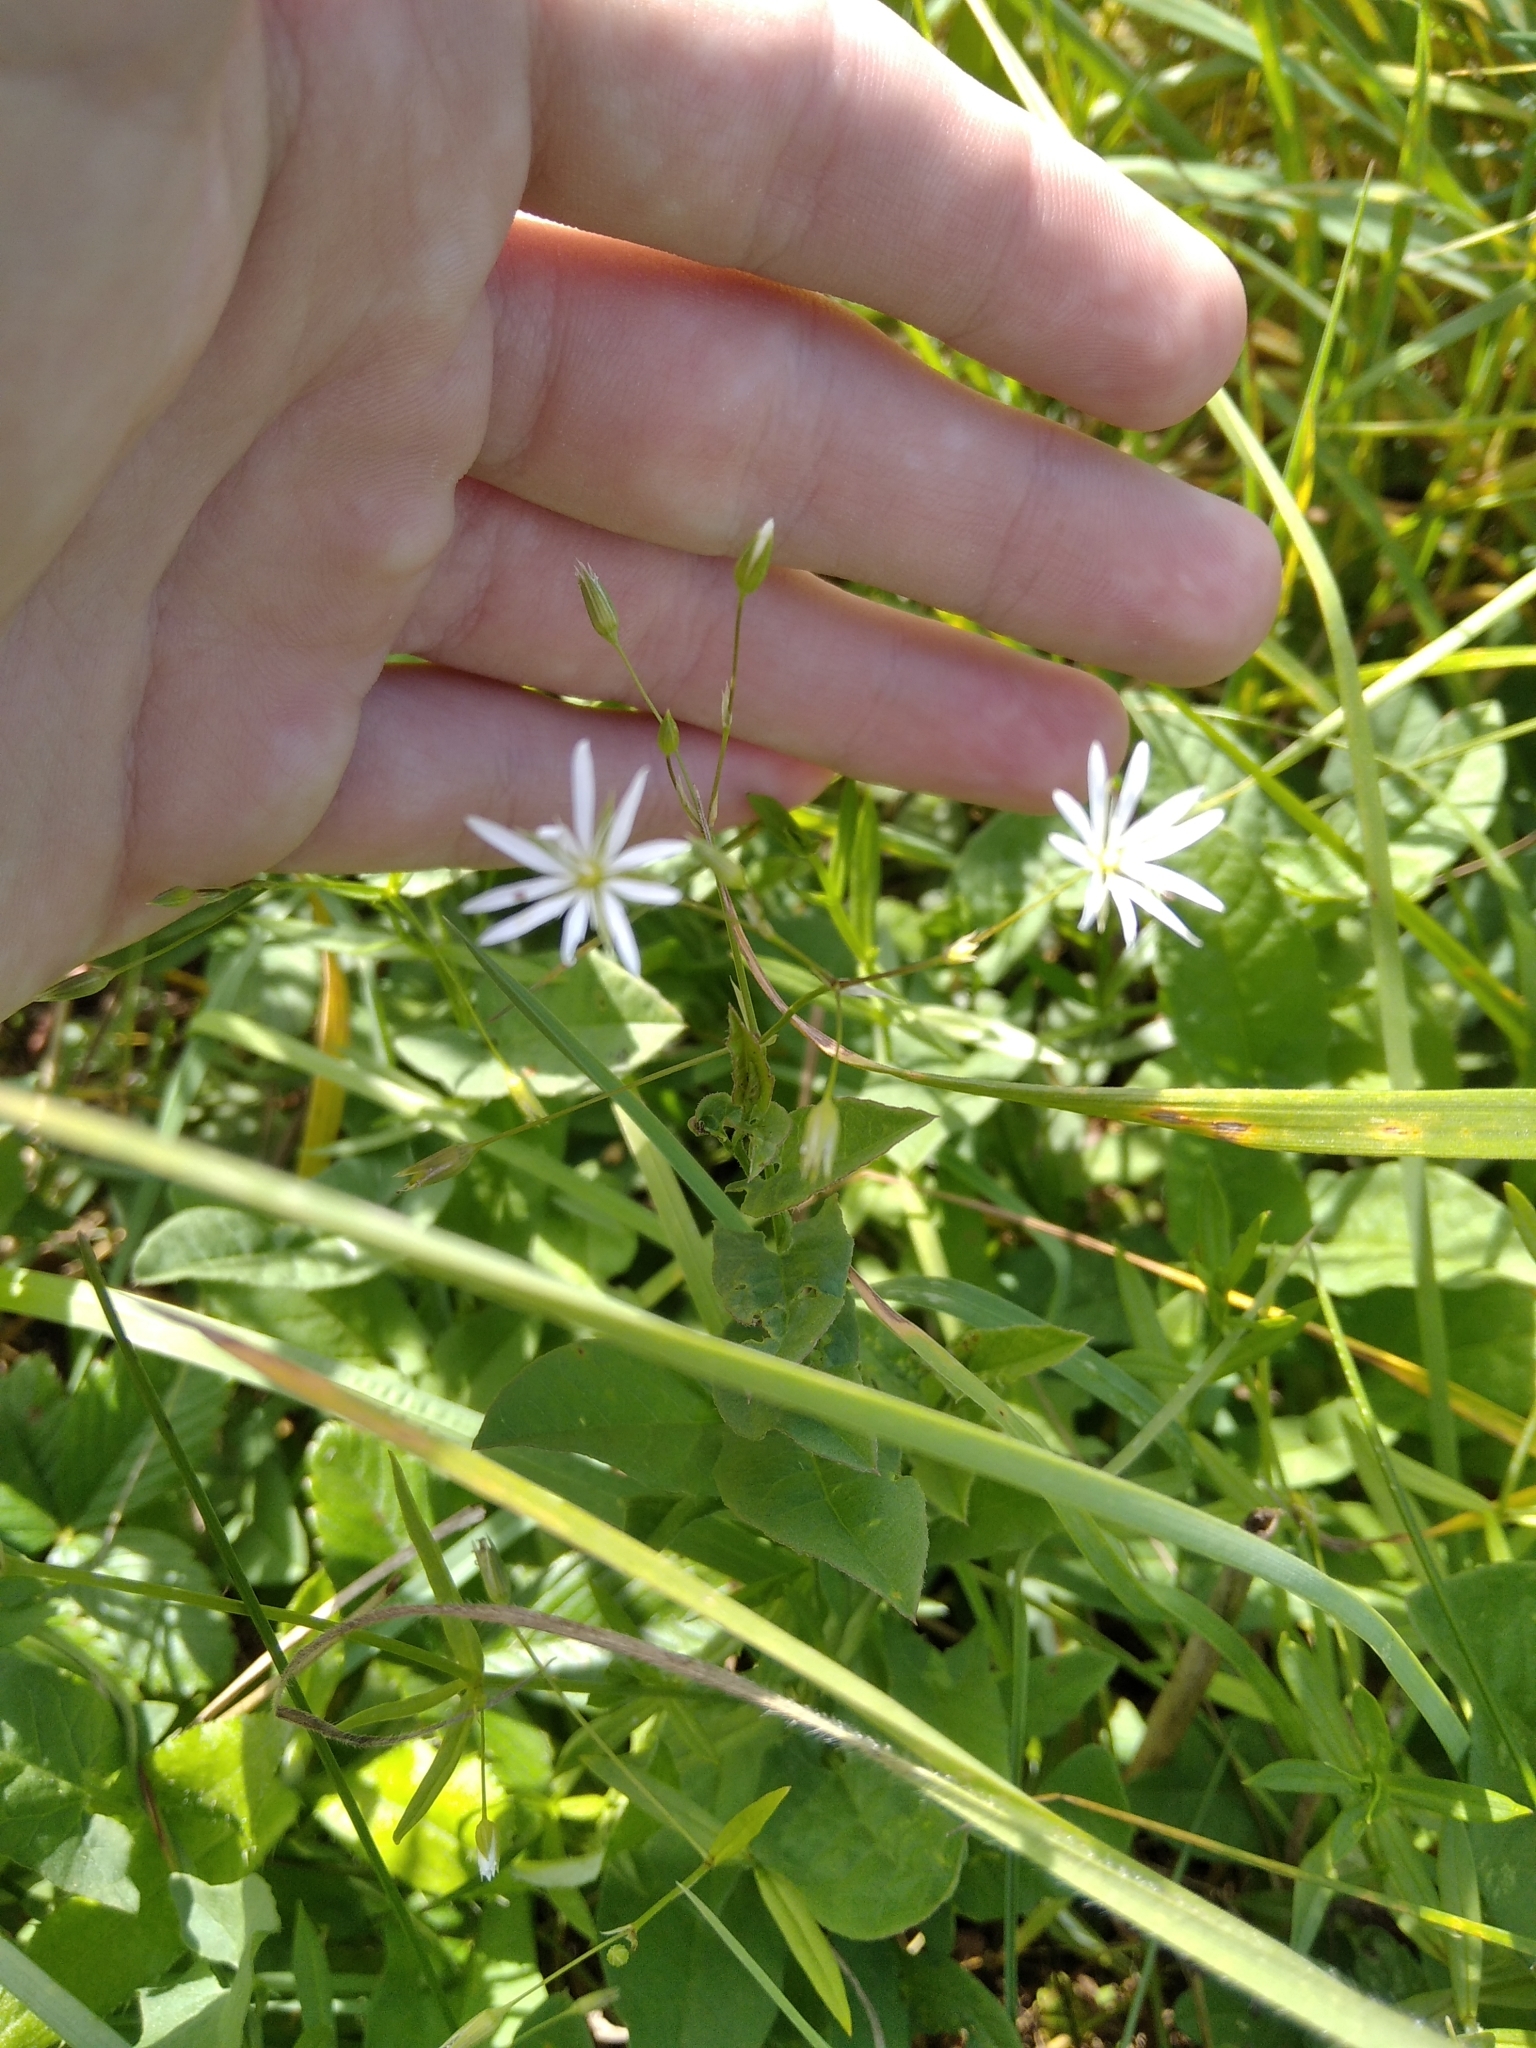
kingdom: Plantae
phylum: Tracheophyta
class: Magnoliopsida
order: Caryophyllales
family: Caryophyllaceae
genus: Stellaria
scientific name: Stellaria graminea
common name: Grass-like starwort
